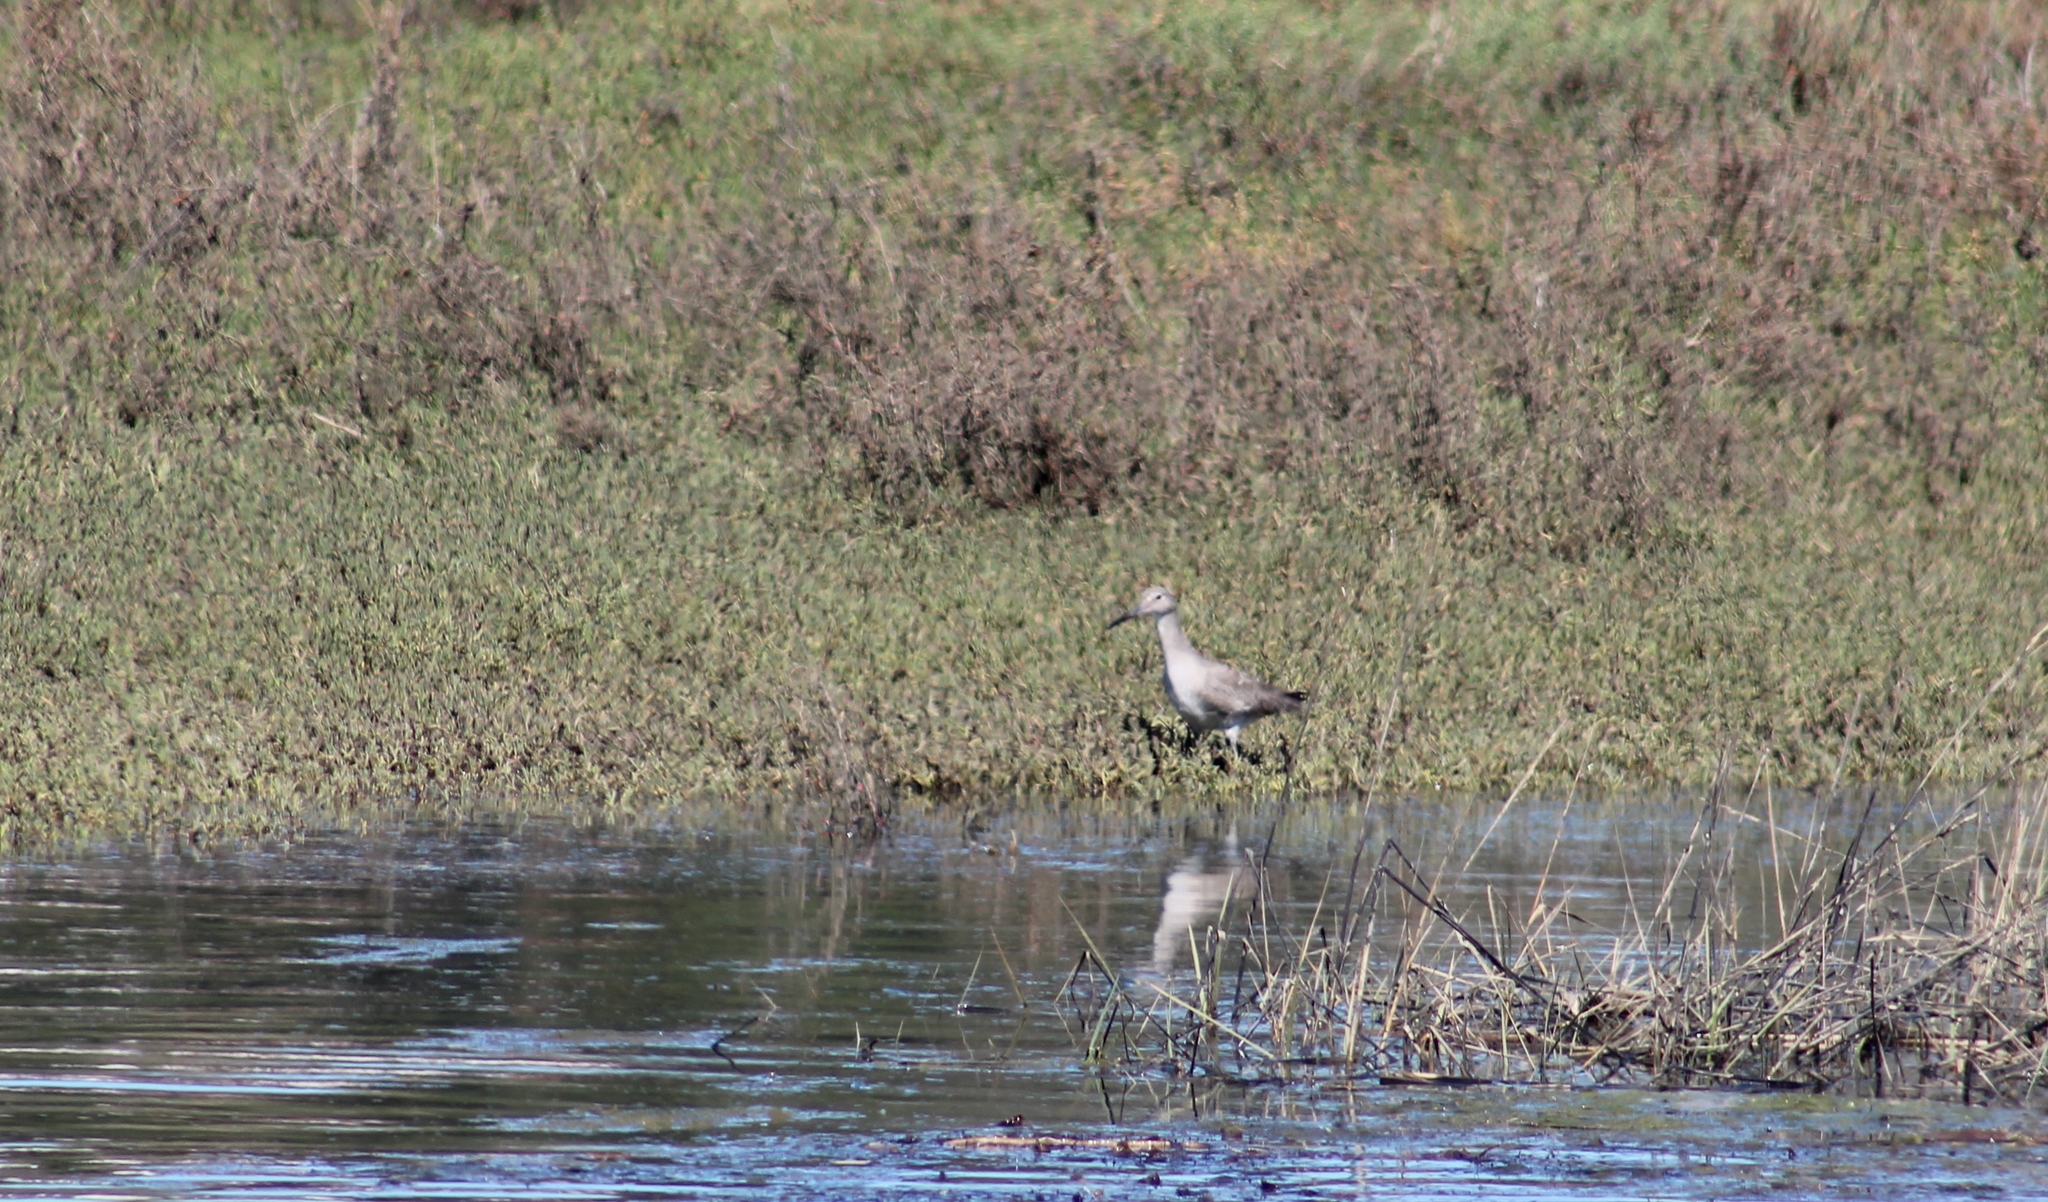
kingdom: Animalia
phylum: Chordata
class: Aves
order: Charadriiformes
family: Scolopacidae
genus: Tringa
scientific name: Tringa semipalmata
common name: Willet
